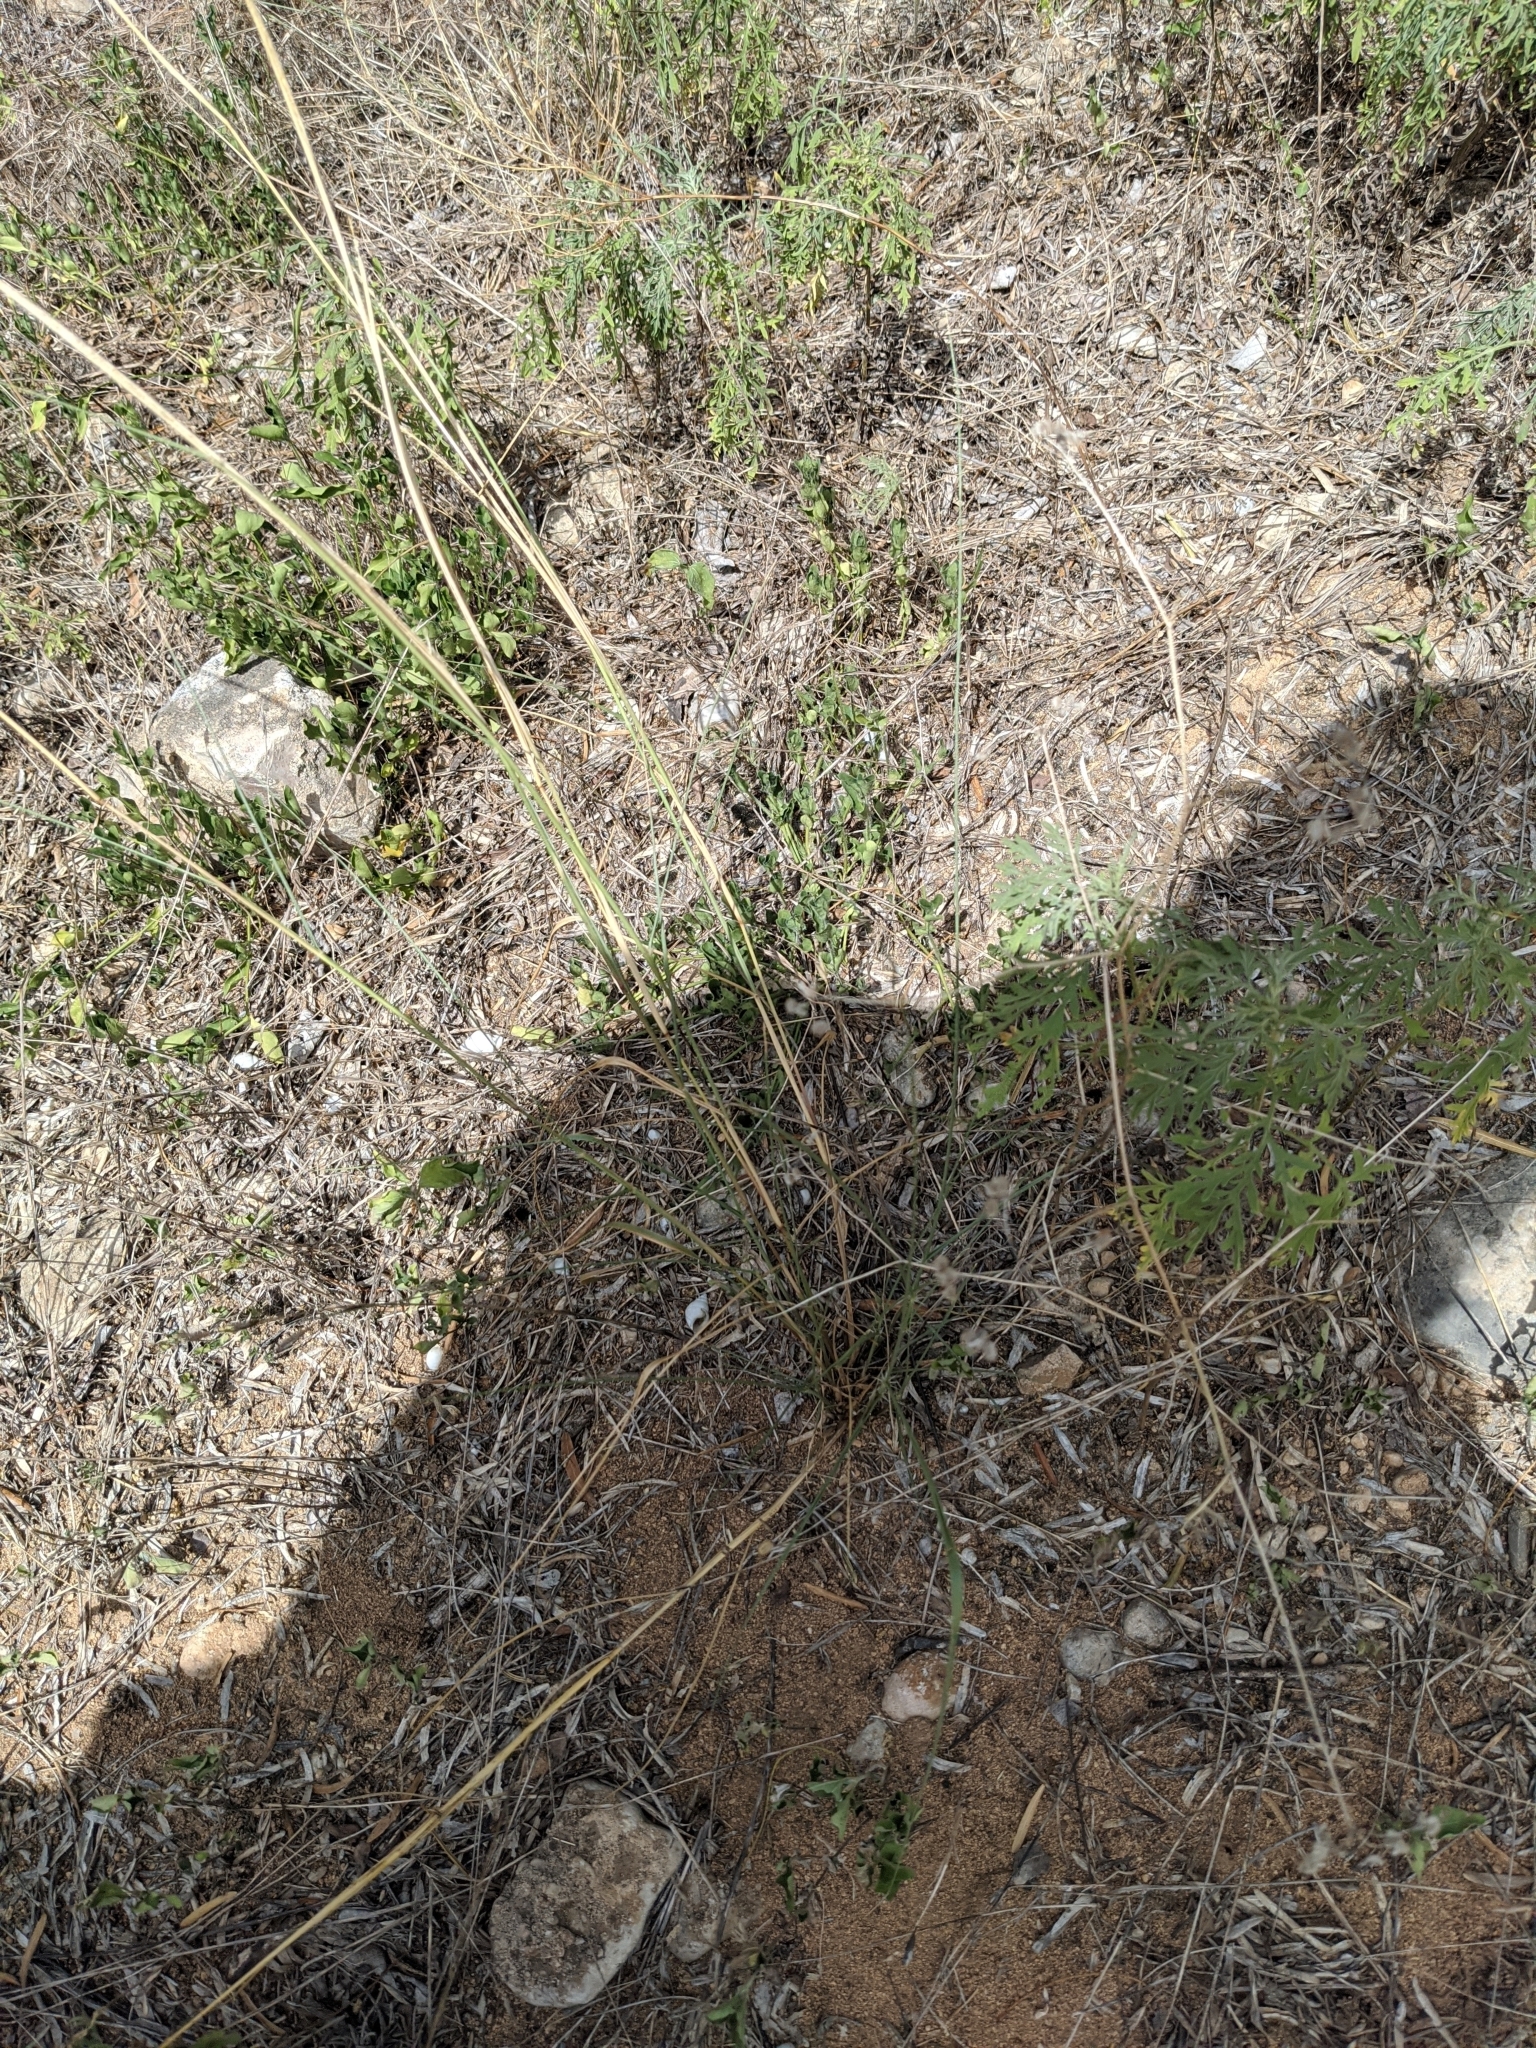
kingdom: Plantae
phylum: Tracheophyta
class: Liliopsida
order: Poales
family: Poaceae
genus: Sporobolus
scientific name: Sporobolus cryptandrus
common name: Sand dropseed
